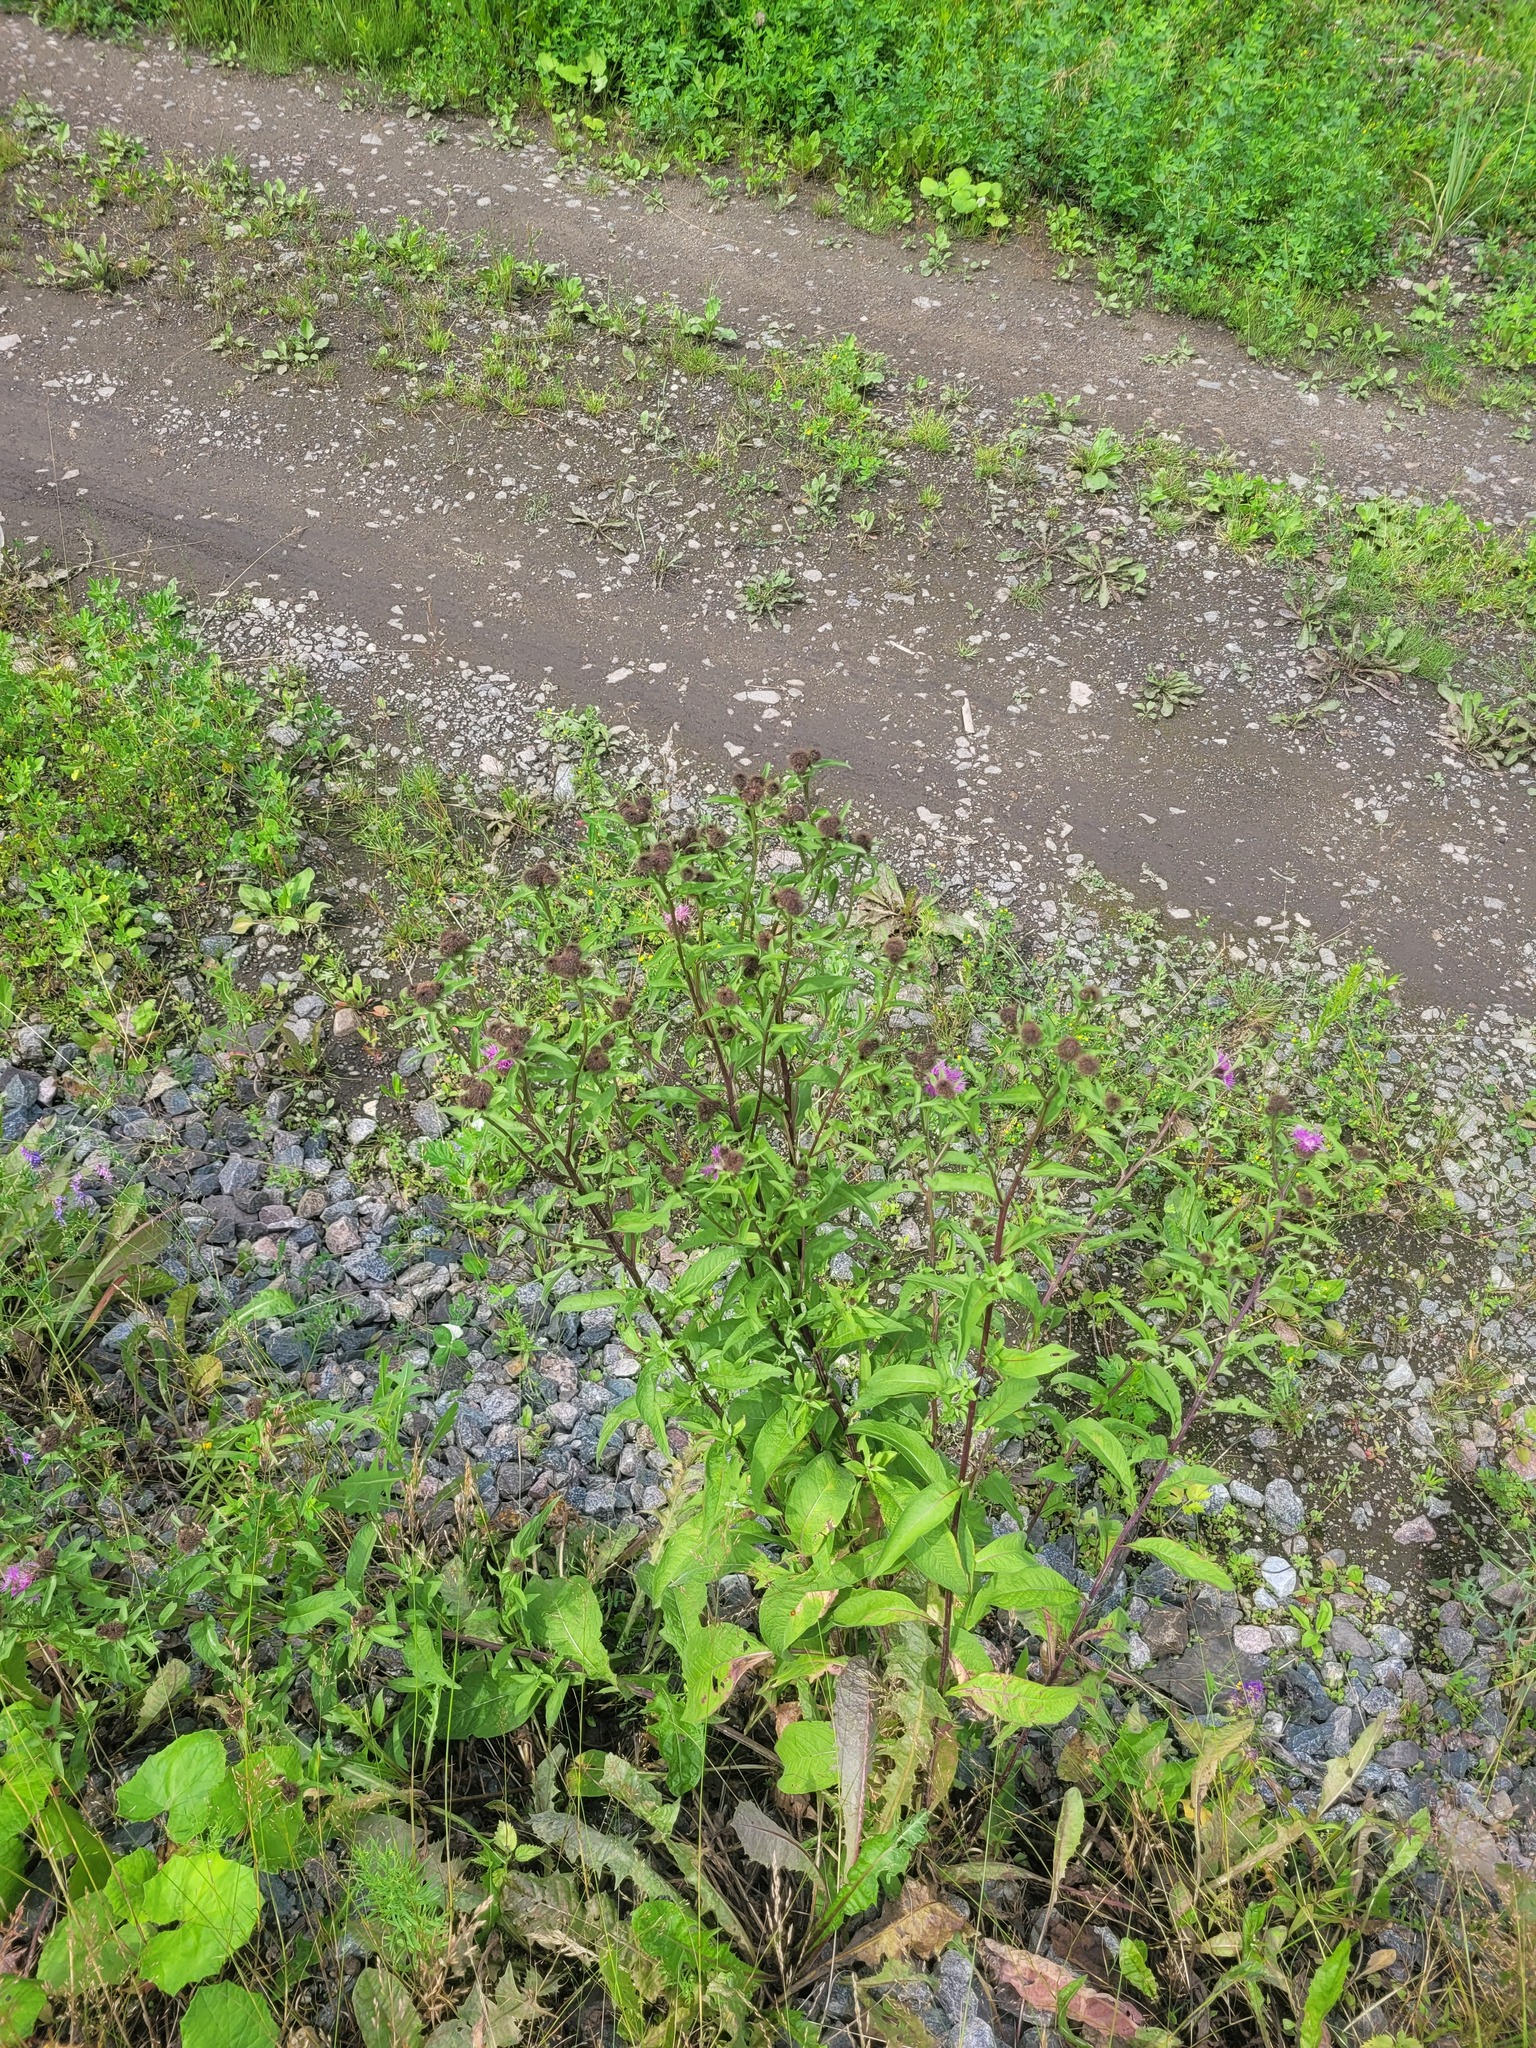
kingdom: Plantae
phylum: Tracheophyta
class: Magnoliopsida
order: Asterales
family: Asteraceae
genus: Centaurea
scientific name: Centaurea pseudophrygia
